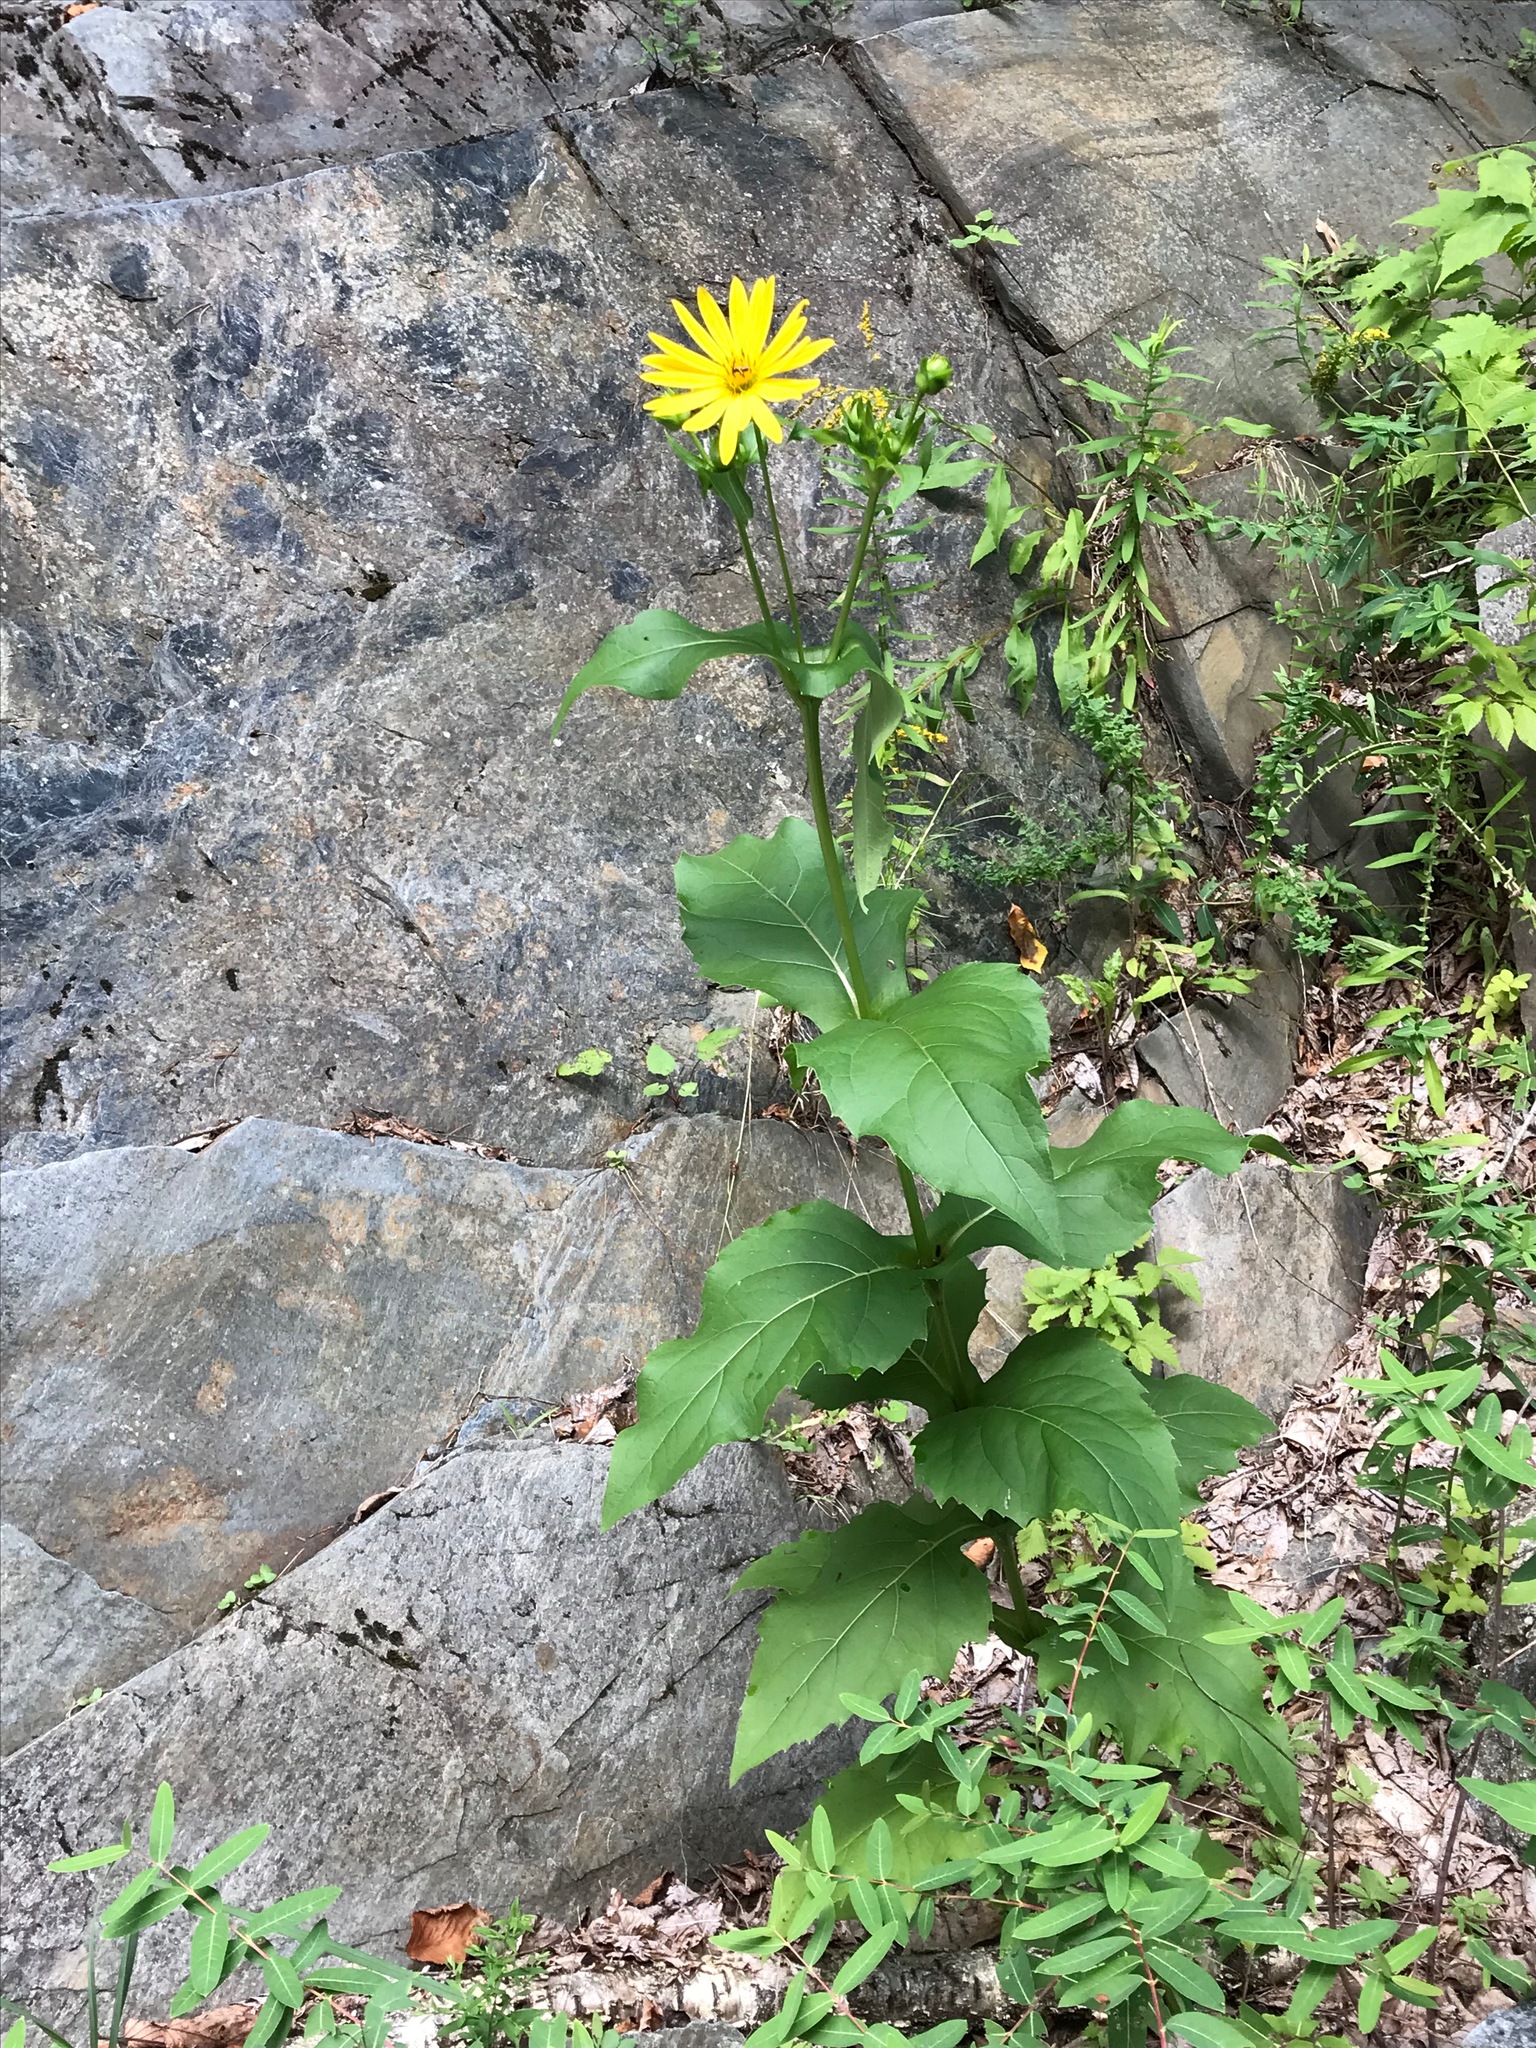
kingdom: Plantae
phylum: Tracheophyta
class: Magnoliopsida
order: Asterales
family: Asteraceae
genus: Silphium
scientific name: Silphium perfoliatum
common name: Cup-plant
